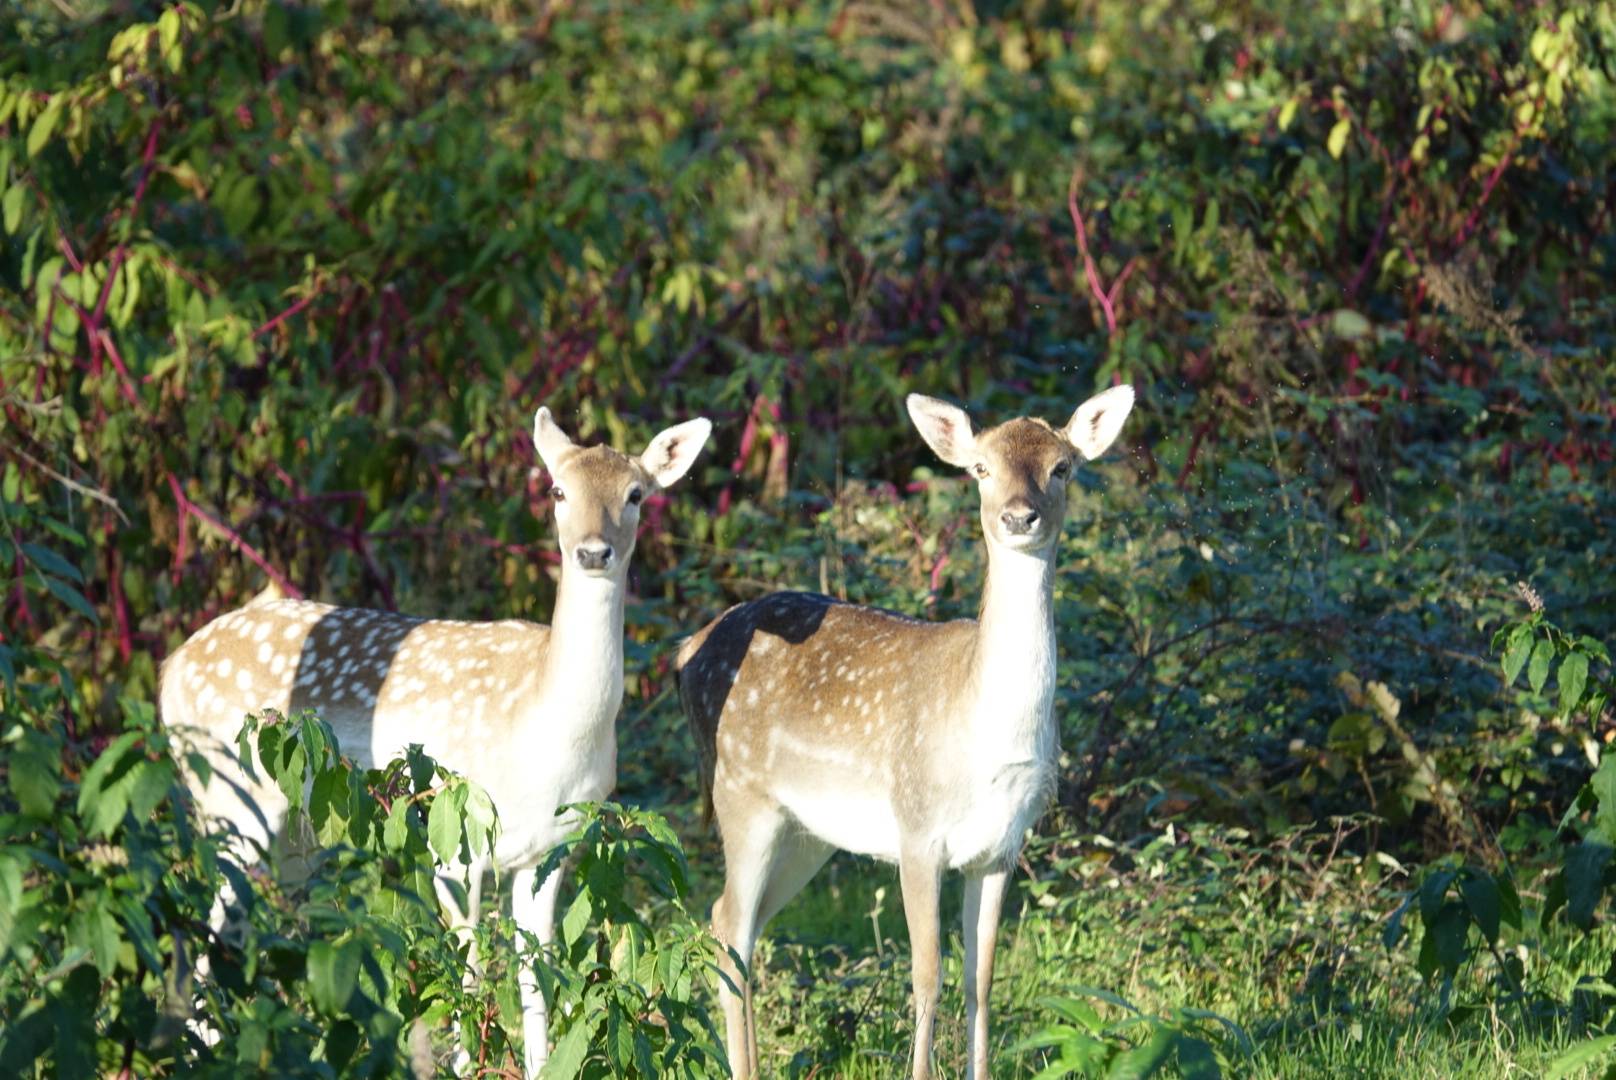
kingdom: Animalia
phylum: Chordata
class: Mammalia
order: Artiodactyla
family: Cervidae
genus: Dama
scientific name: Dama dama
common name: Fallow deer
